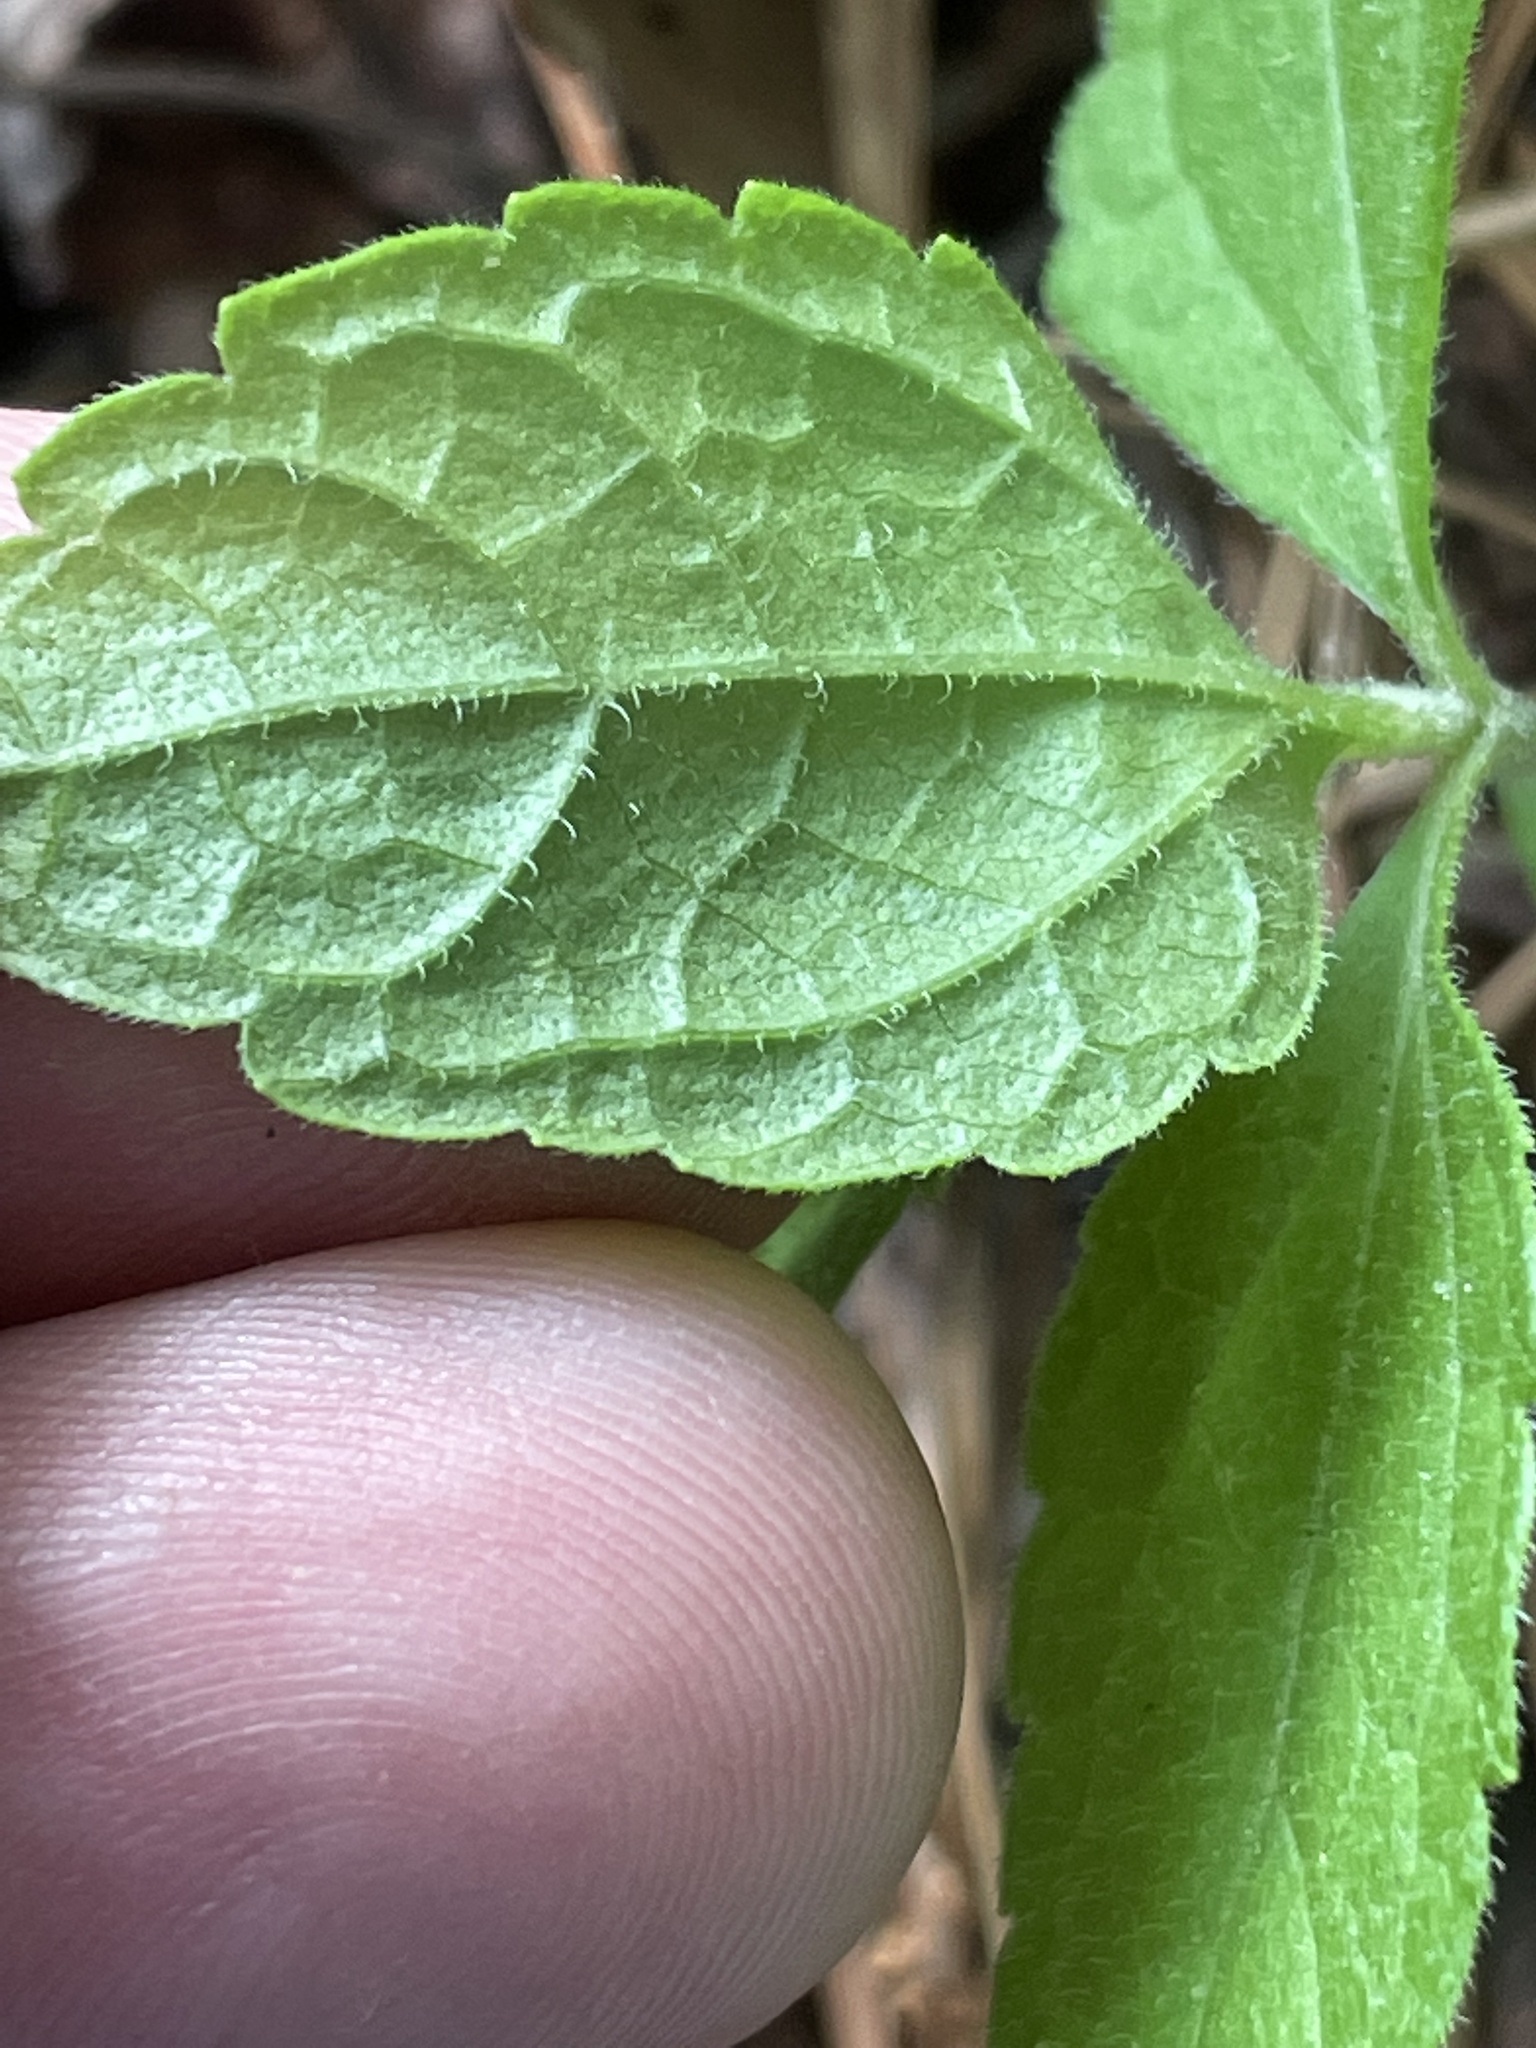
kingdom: Plantae
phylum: Tracheophyta
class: Magnoliopsida
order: Asterales
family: Asteraceae
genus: Ageratina
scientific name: Ageratina aromatica
